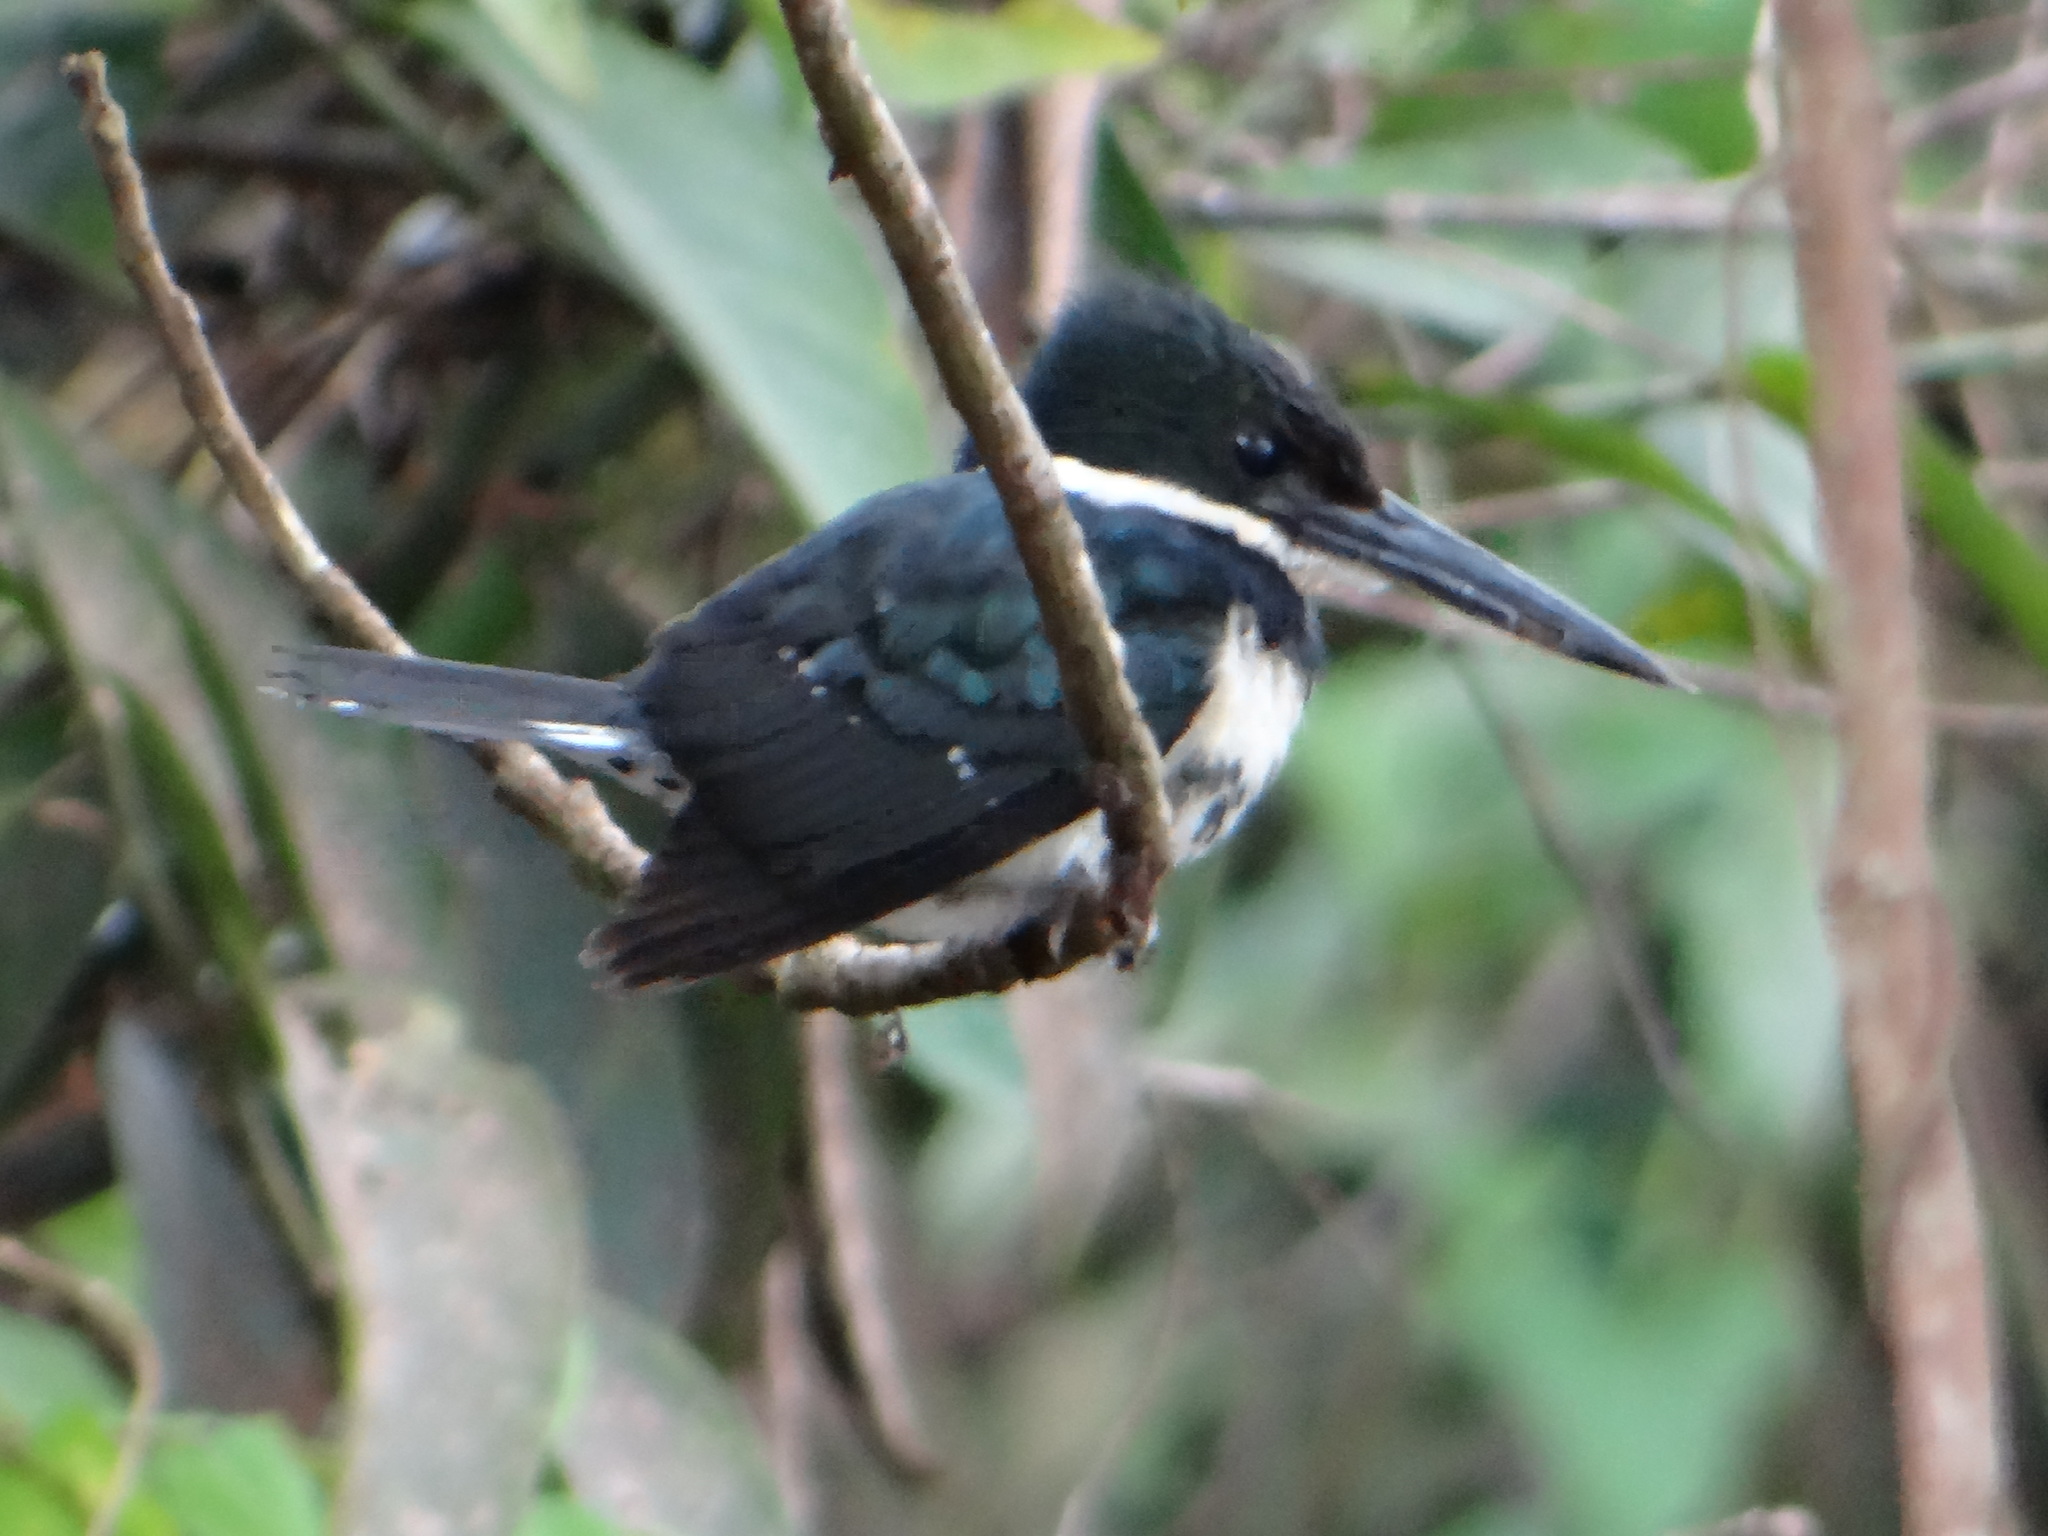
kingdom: Animalia
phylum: Chordata
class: Aves
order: Coraciiformes
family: Alcedinidae
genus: Chloroceryle
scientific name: Chloroceryle americana
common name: Green kingfisher
